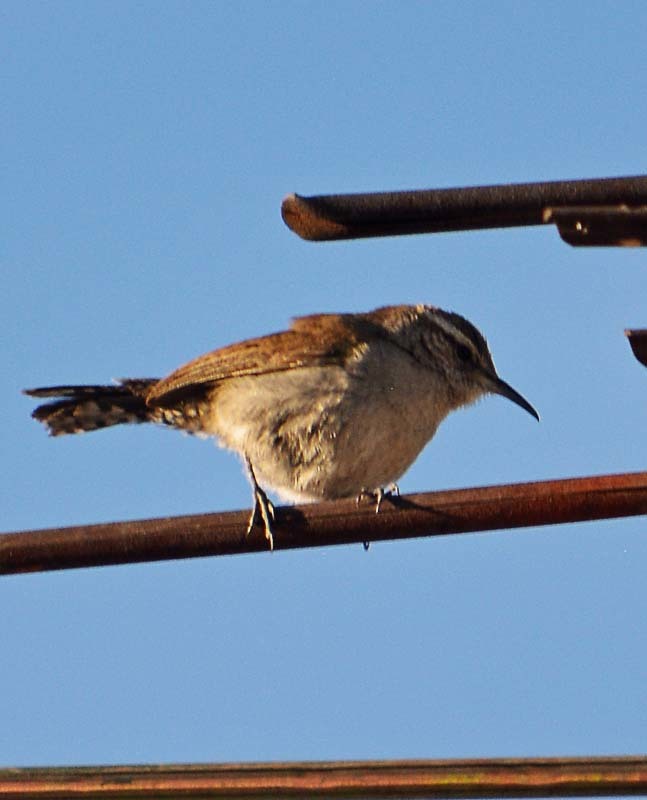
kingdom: Animalia
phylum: Chordata
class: Aves
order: Passeriformes
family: Troglodytidae
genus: Thryomanes
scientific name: Thryomanes bewickii
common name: Bewick's wren
